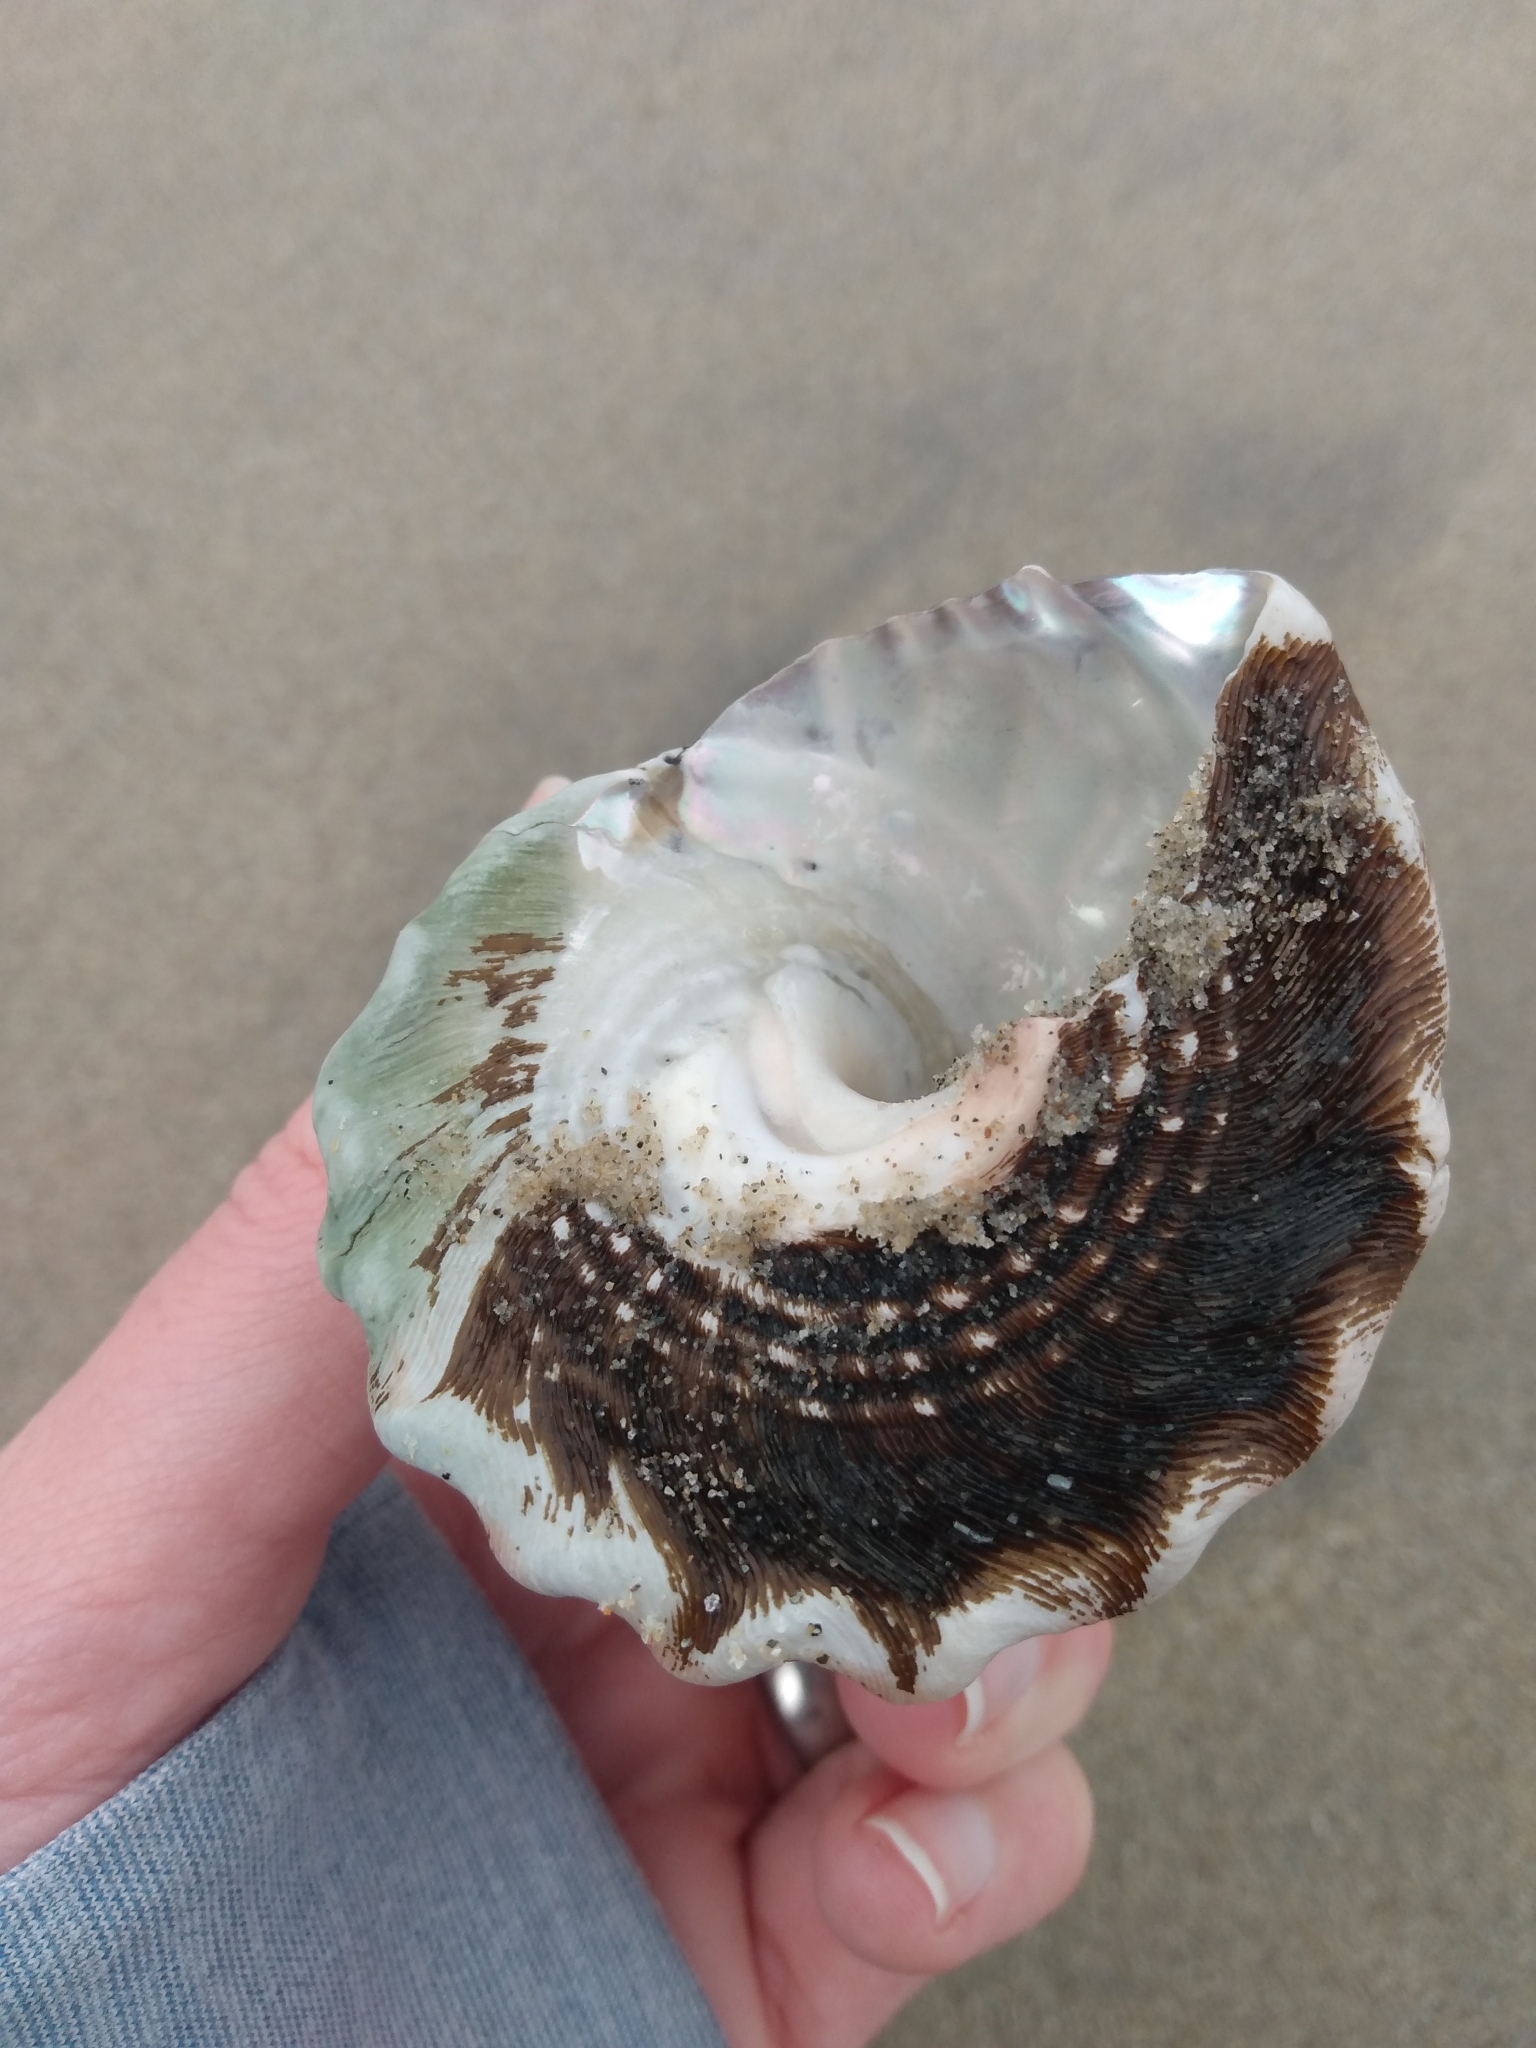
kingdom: Animalia
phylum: Mollusca
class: Gastropoda
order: Trochida
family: Turbinidae
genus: Megastraea
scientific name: Megastraea undosa
